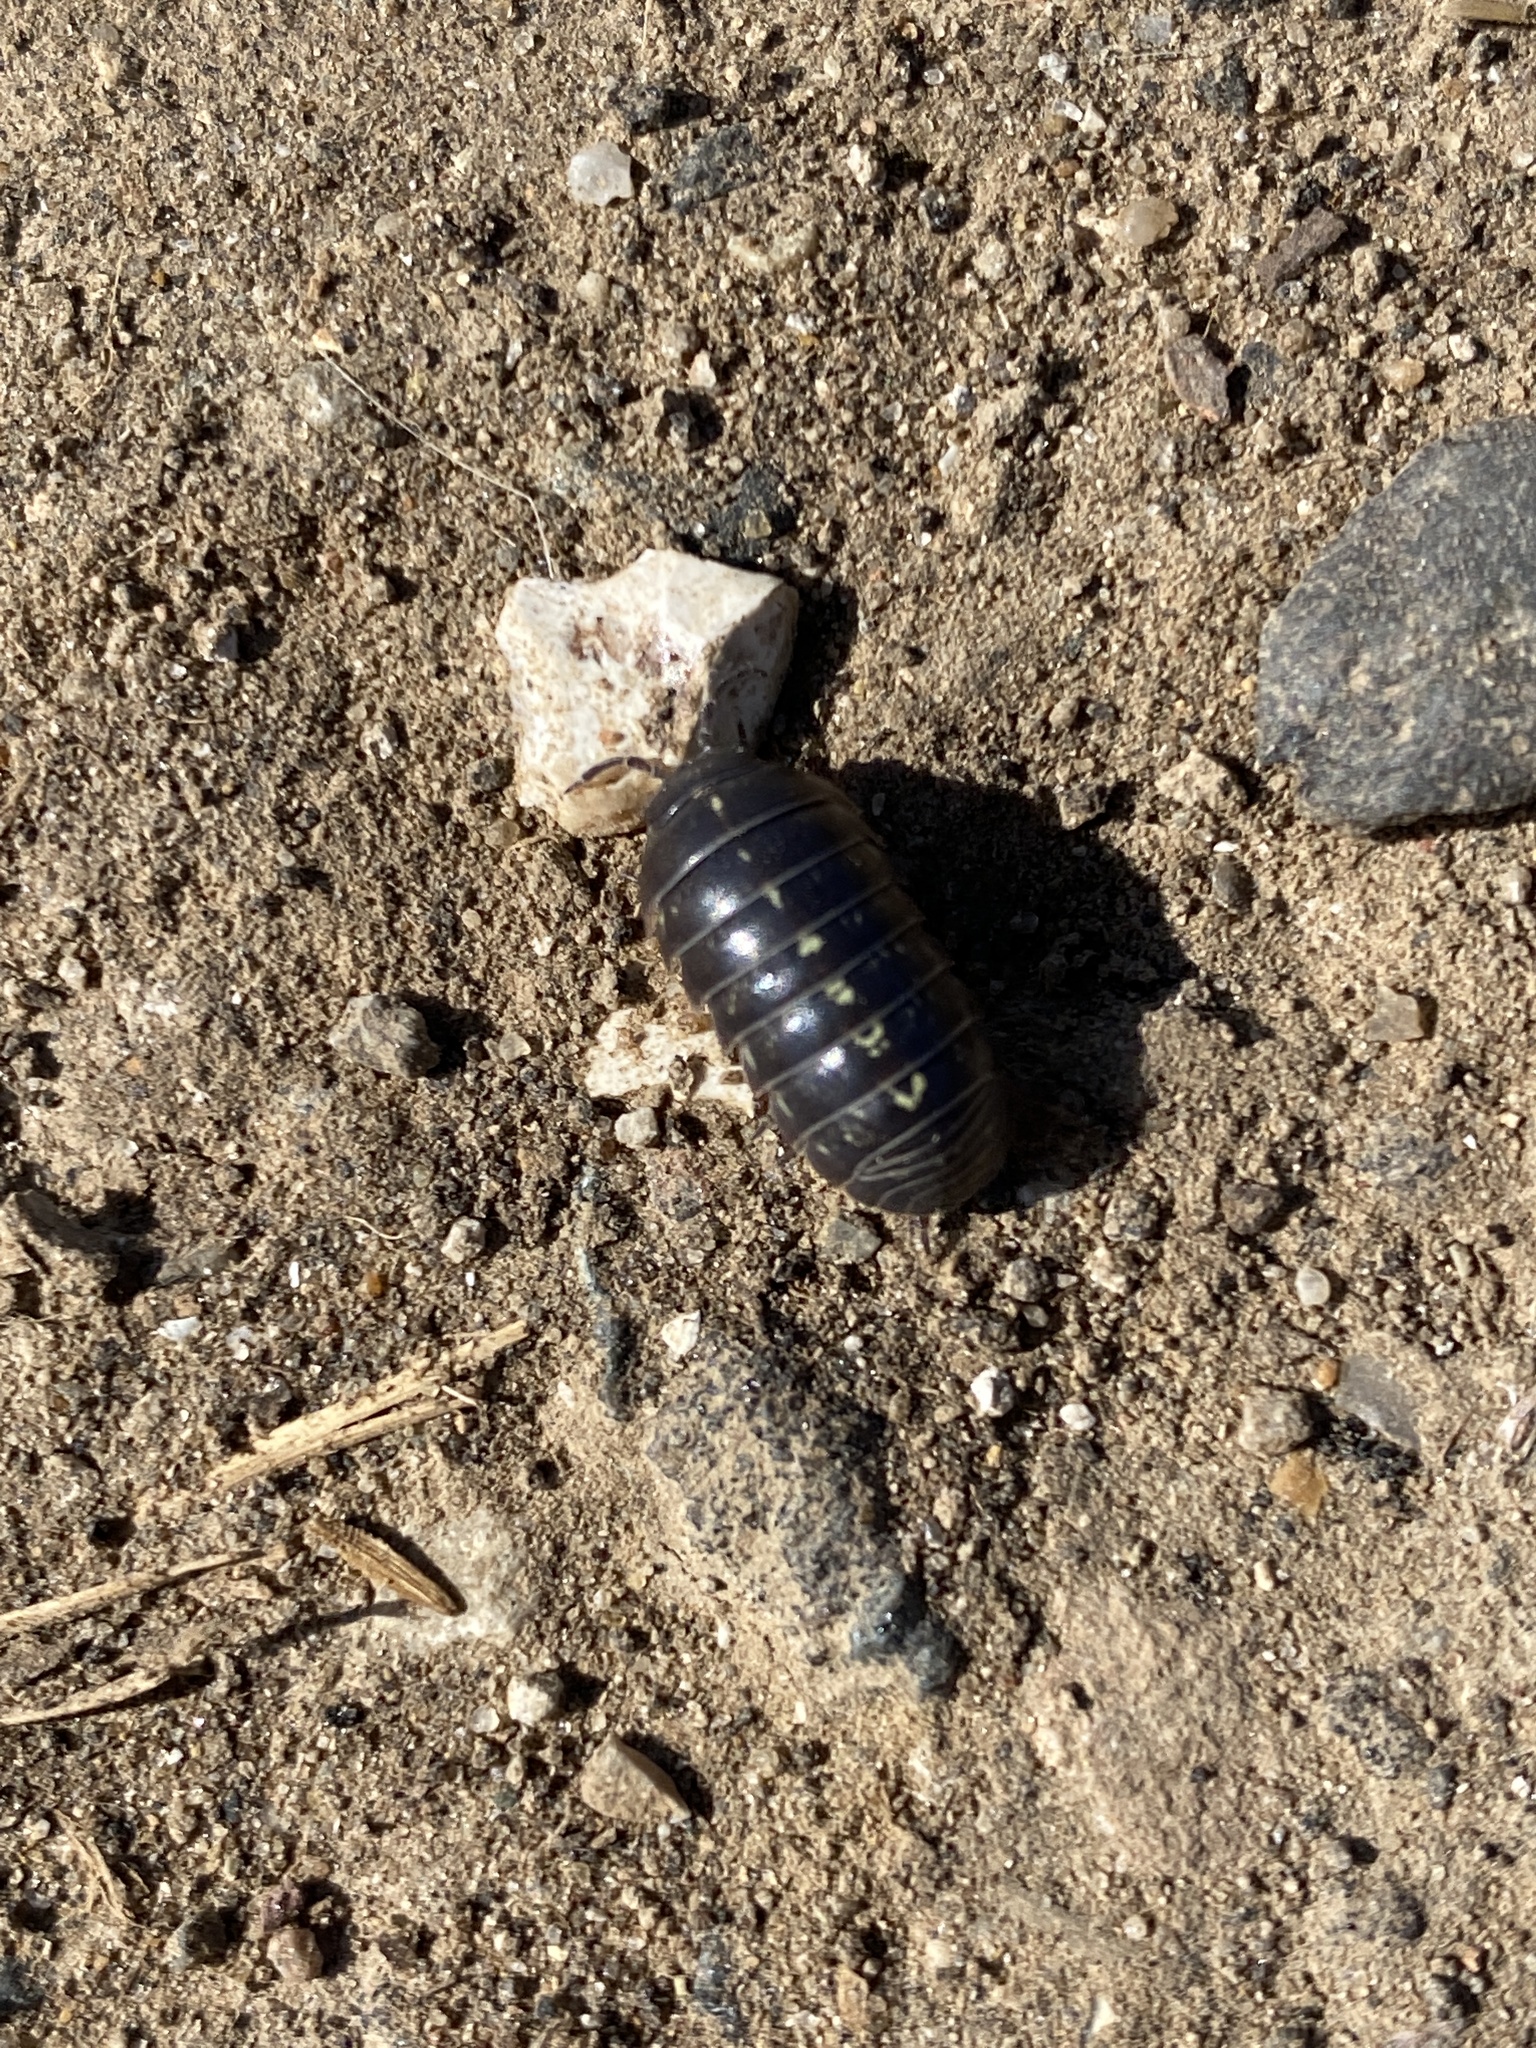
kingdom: Animalia
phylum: Arthropoda
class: Malacostraca
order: Isopoda
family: Armadillidiidae
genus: Armadillidium
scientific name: Armadillidium vulgare
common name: Common pill woodlouse
